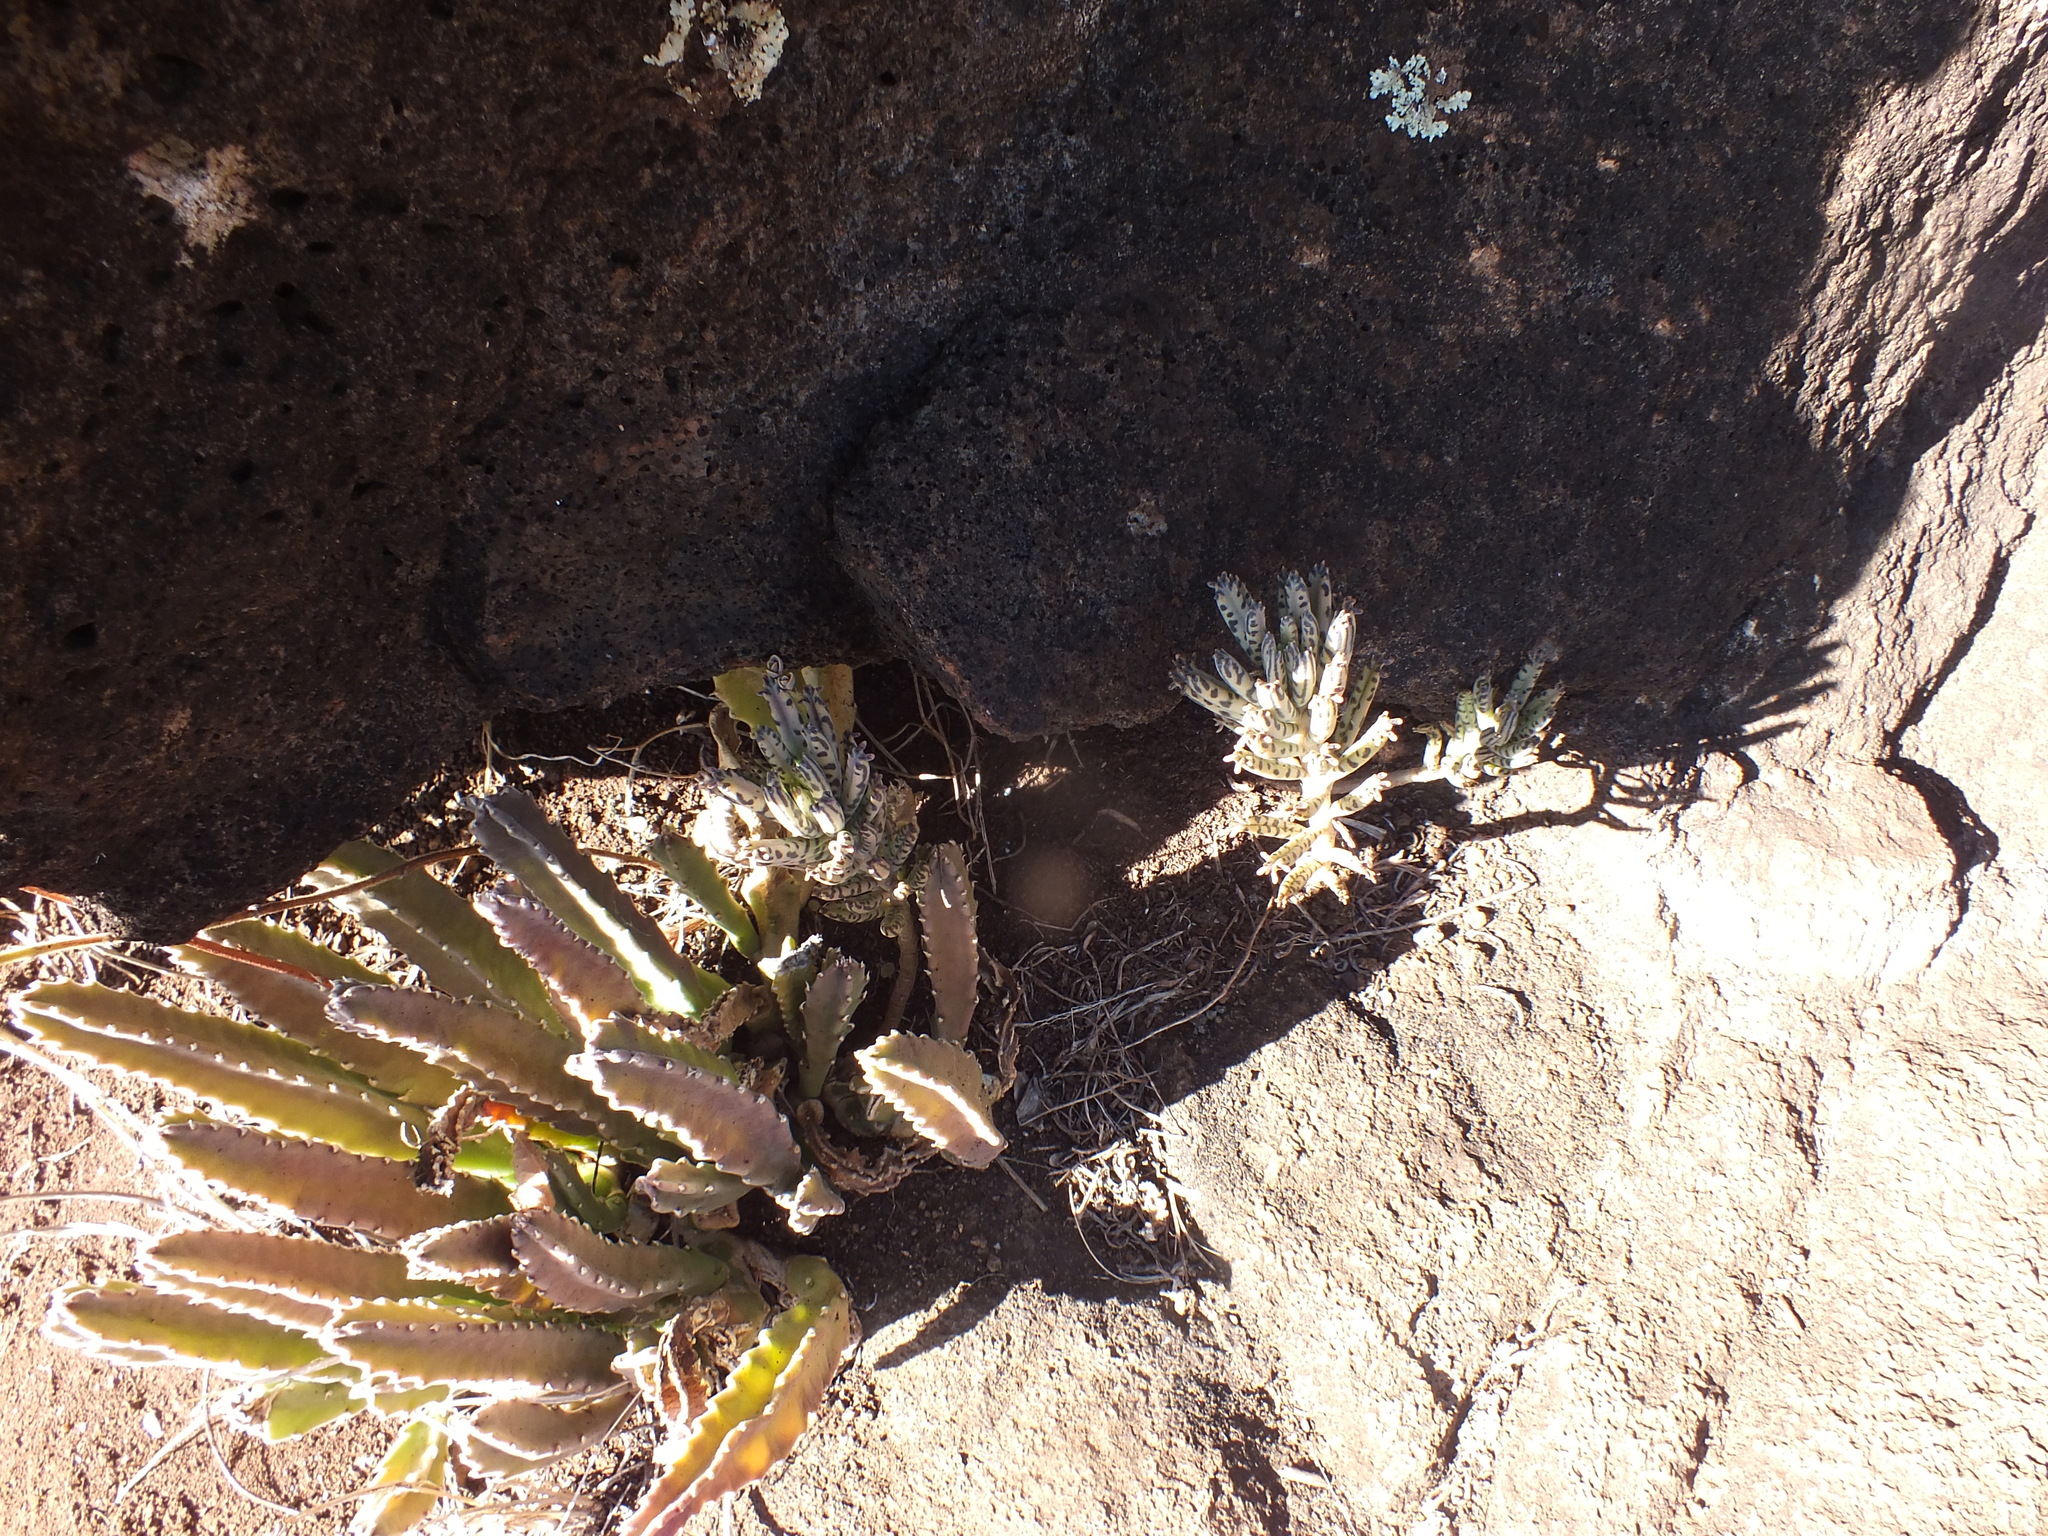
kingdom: Plantae
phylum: Tracheophyta
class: Magnoliopsida
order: Saxifragales
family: Crassulaceae
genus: Kalanchoe
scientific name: Kalanchoe delagoensis
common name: Chandelier plant
